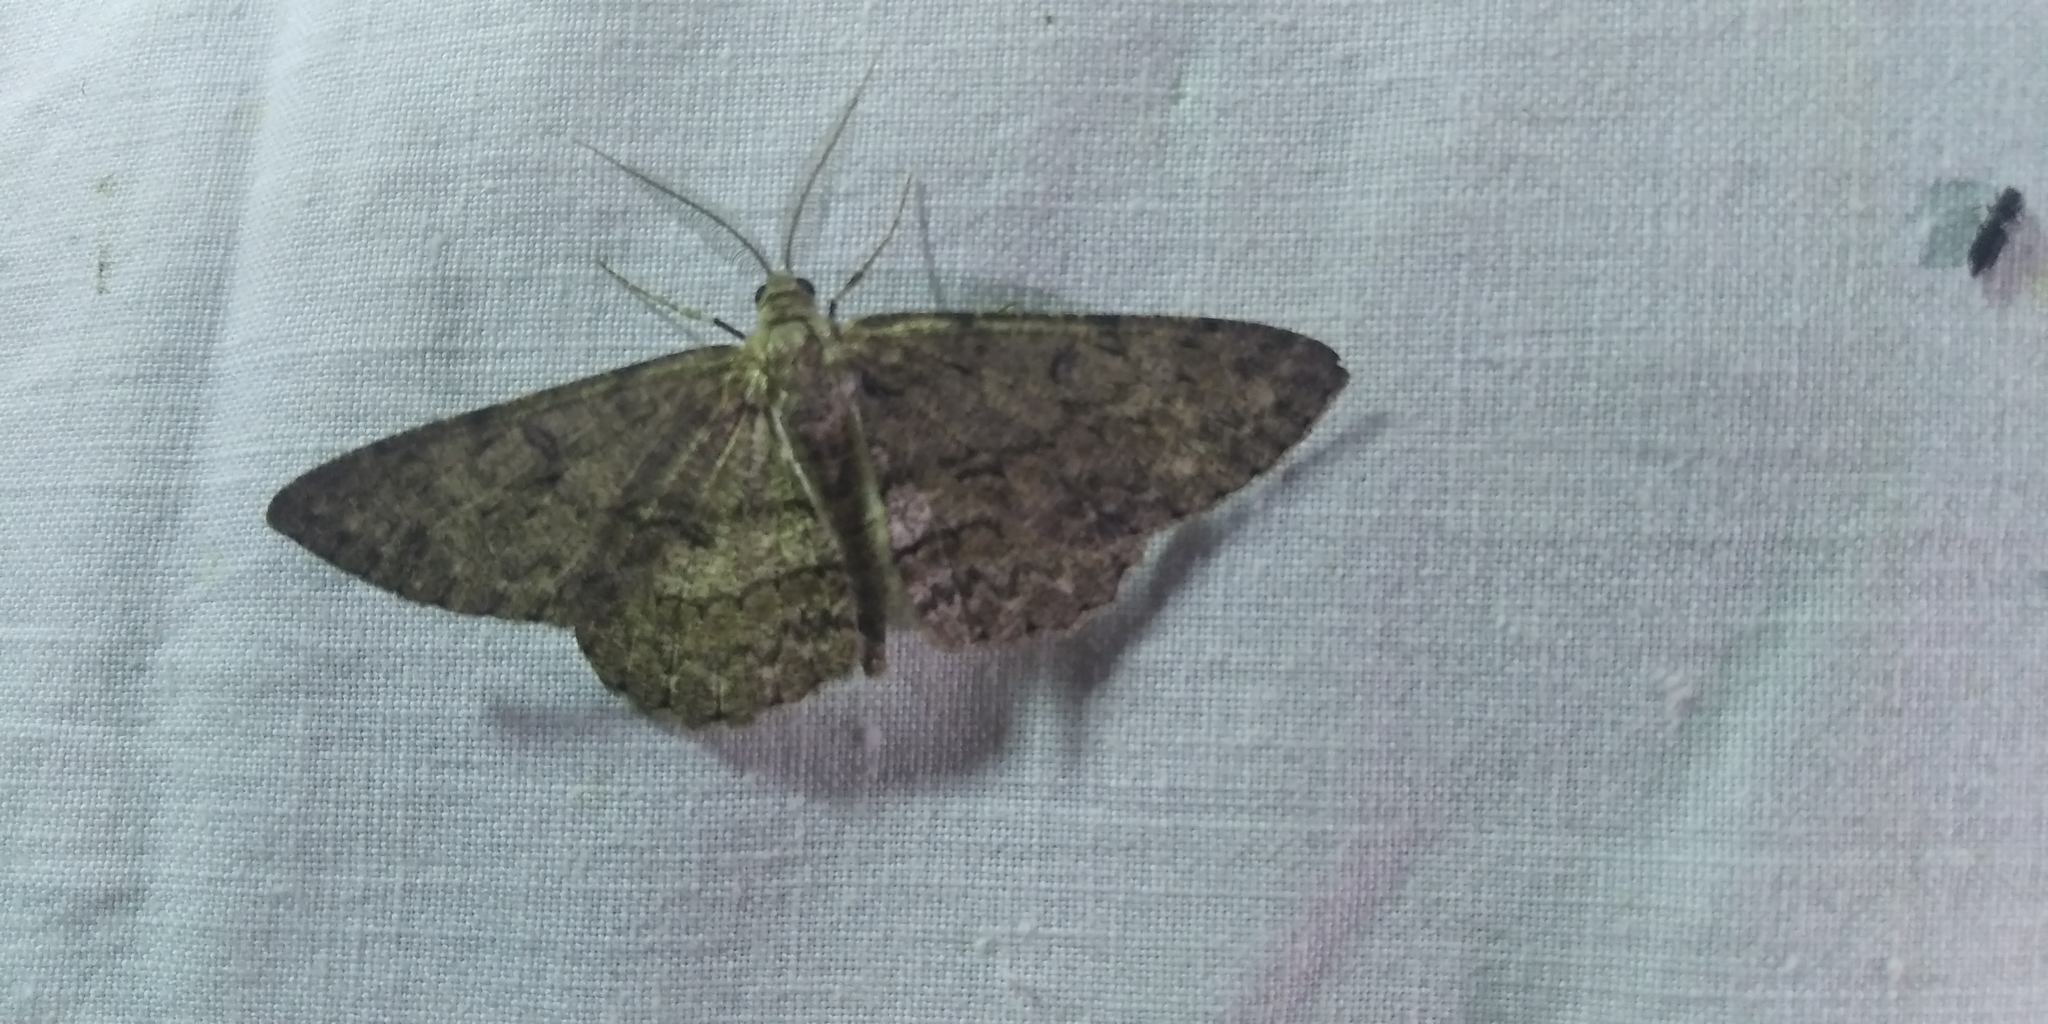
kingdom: Animalia
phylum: Arthropoda
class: Insecta
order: Lepidoptera
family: Geometridae
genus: Hypomecis
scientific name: Hypomecis punctinalis
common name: Pale oak beauty
